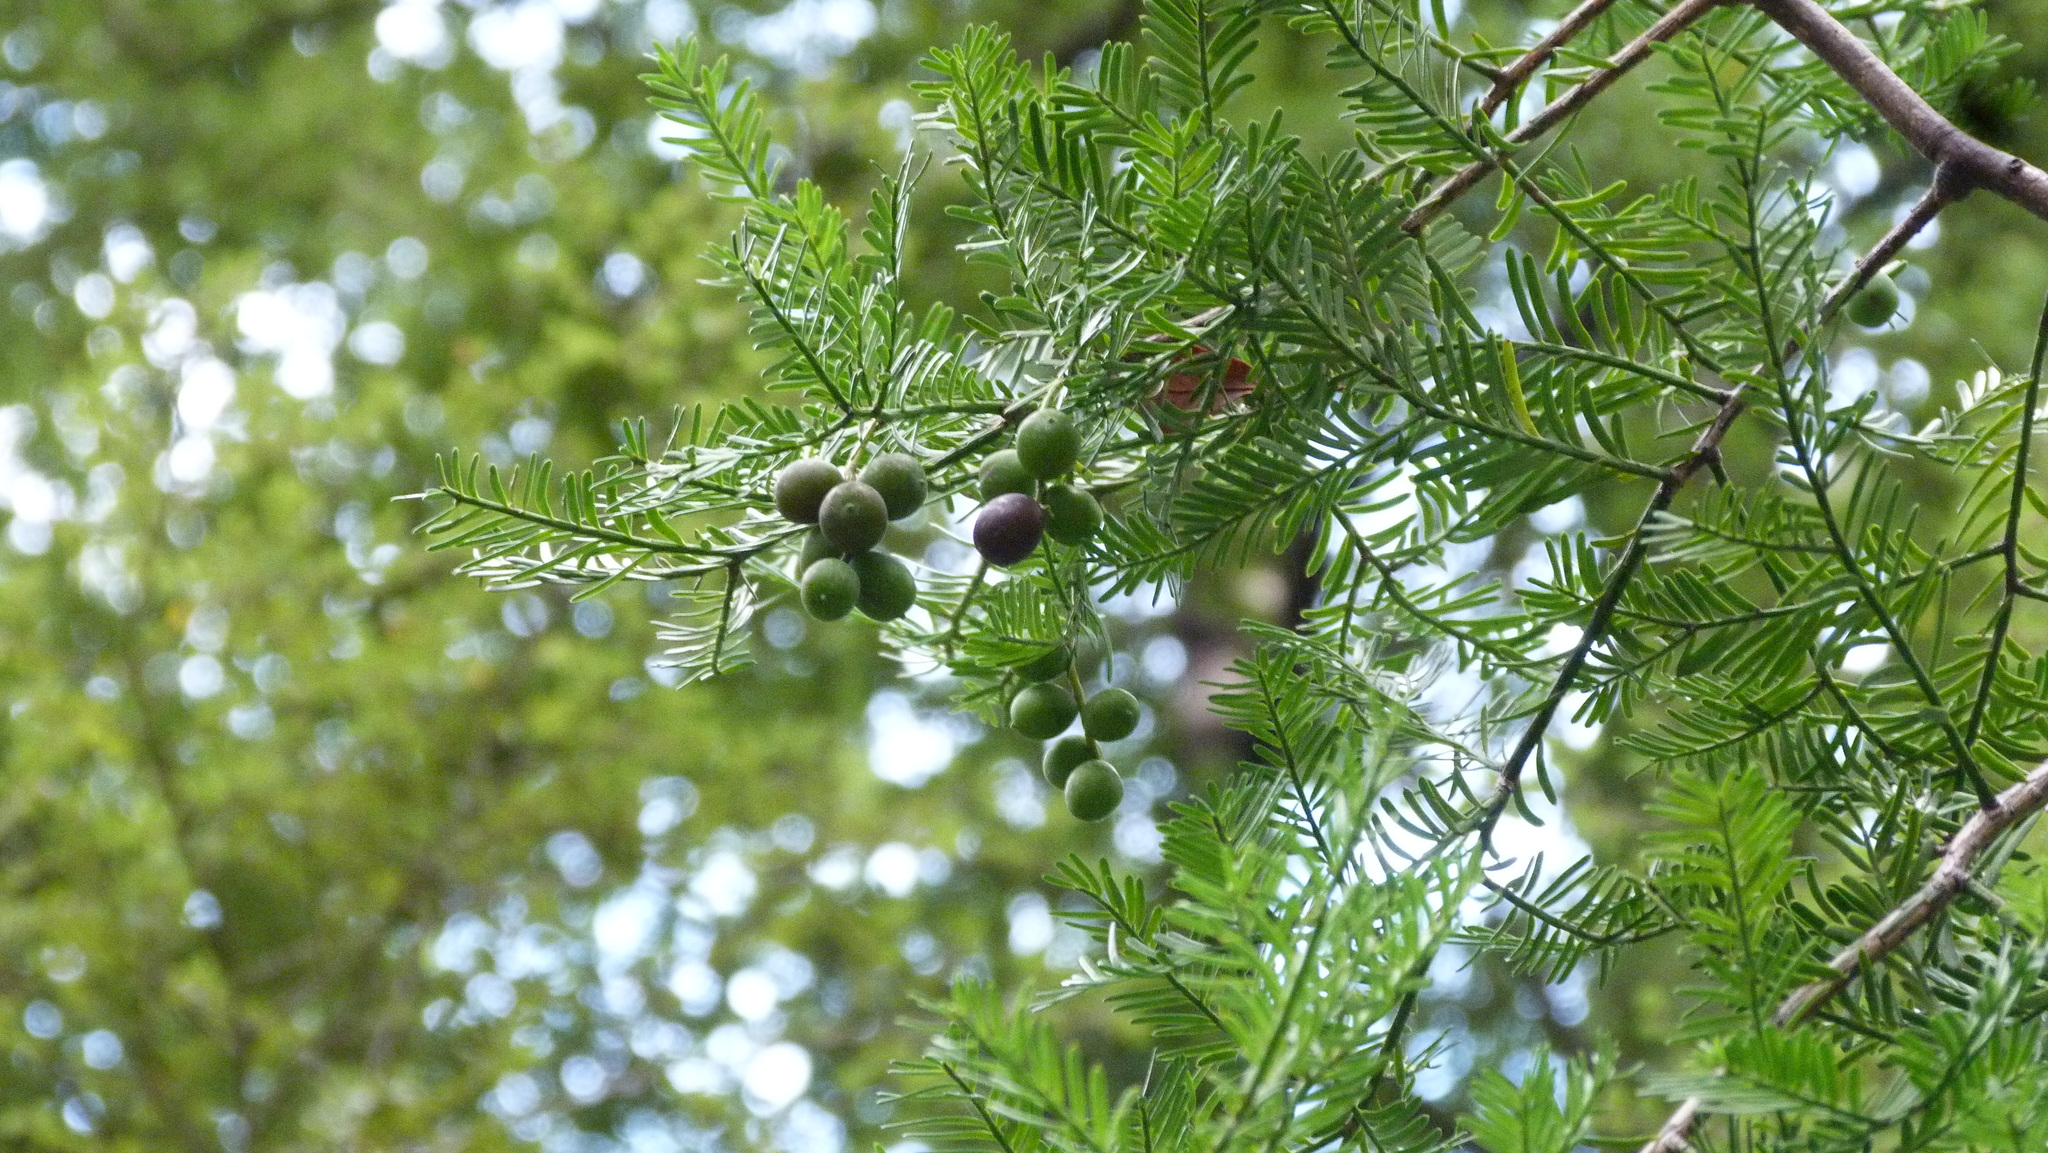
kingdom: Plantae
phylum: Tracheophyta
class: Pinopsida
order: Pinales
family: Podocarpaceae
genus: Prumnopitys
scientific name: Prumnopitys taxifolia
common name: Matai
